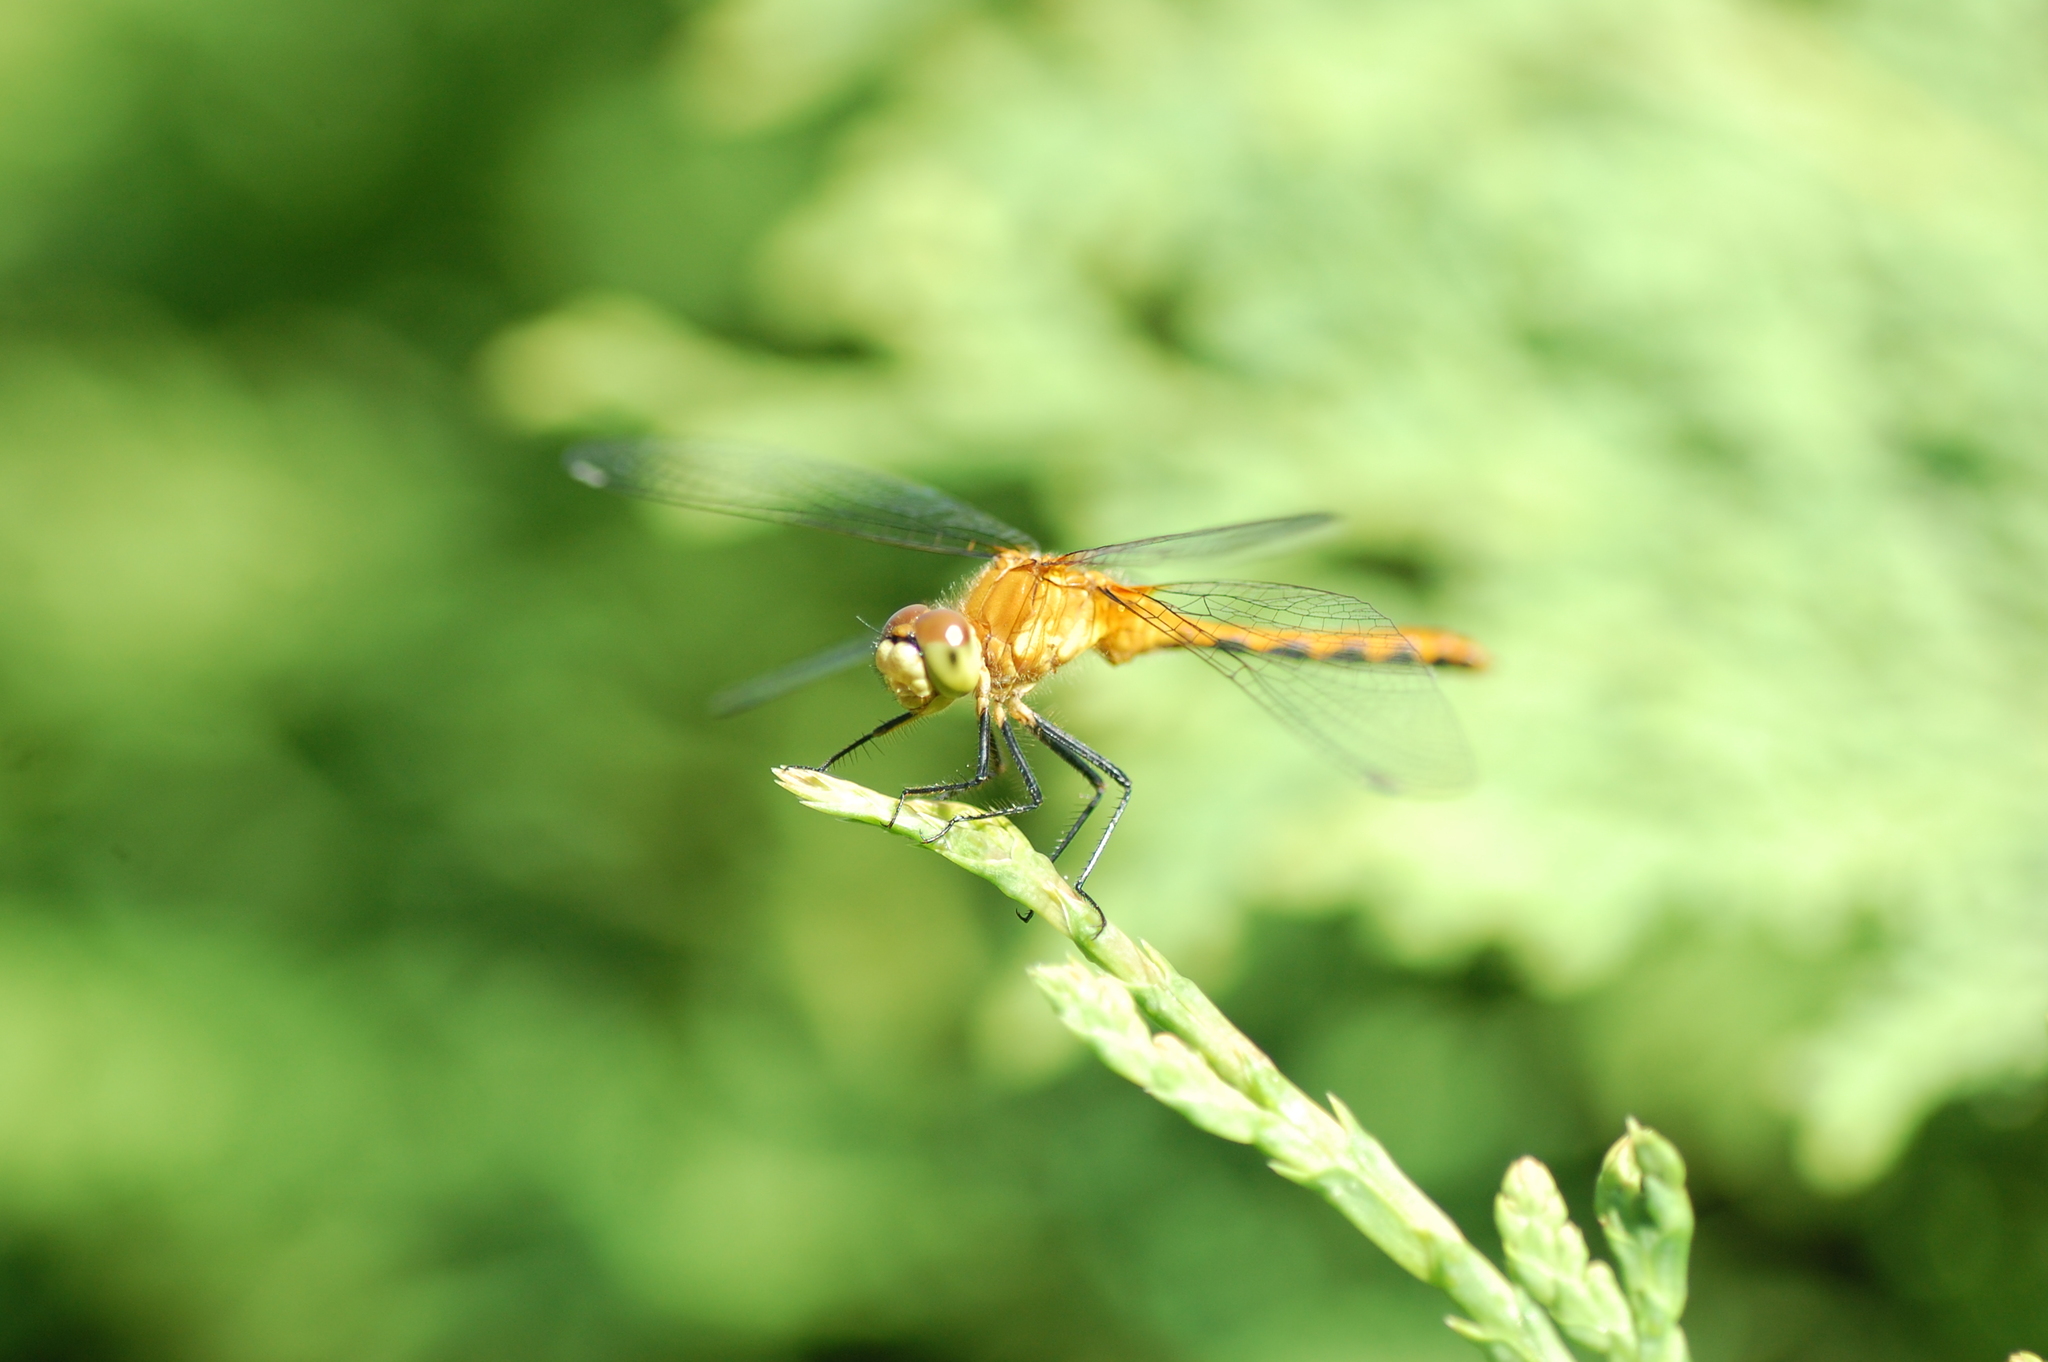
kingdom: Animalia
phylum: Arthropoda
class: Insecta
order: Odonata
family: Libellulidae
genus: Sympetrum
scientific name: Sympetrum obtrusum
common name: White-faced meadowhawk
